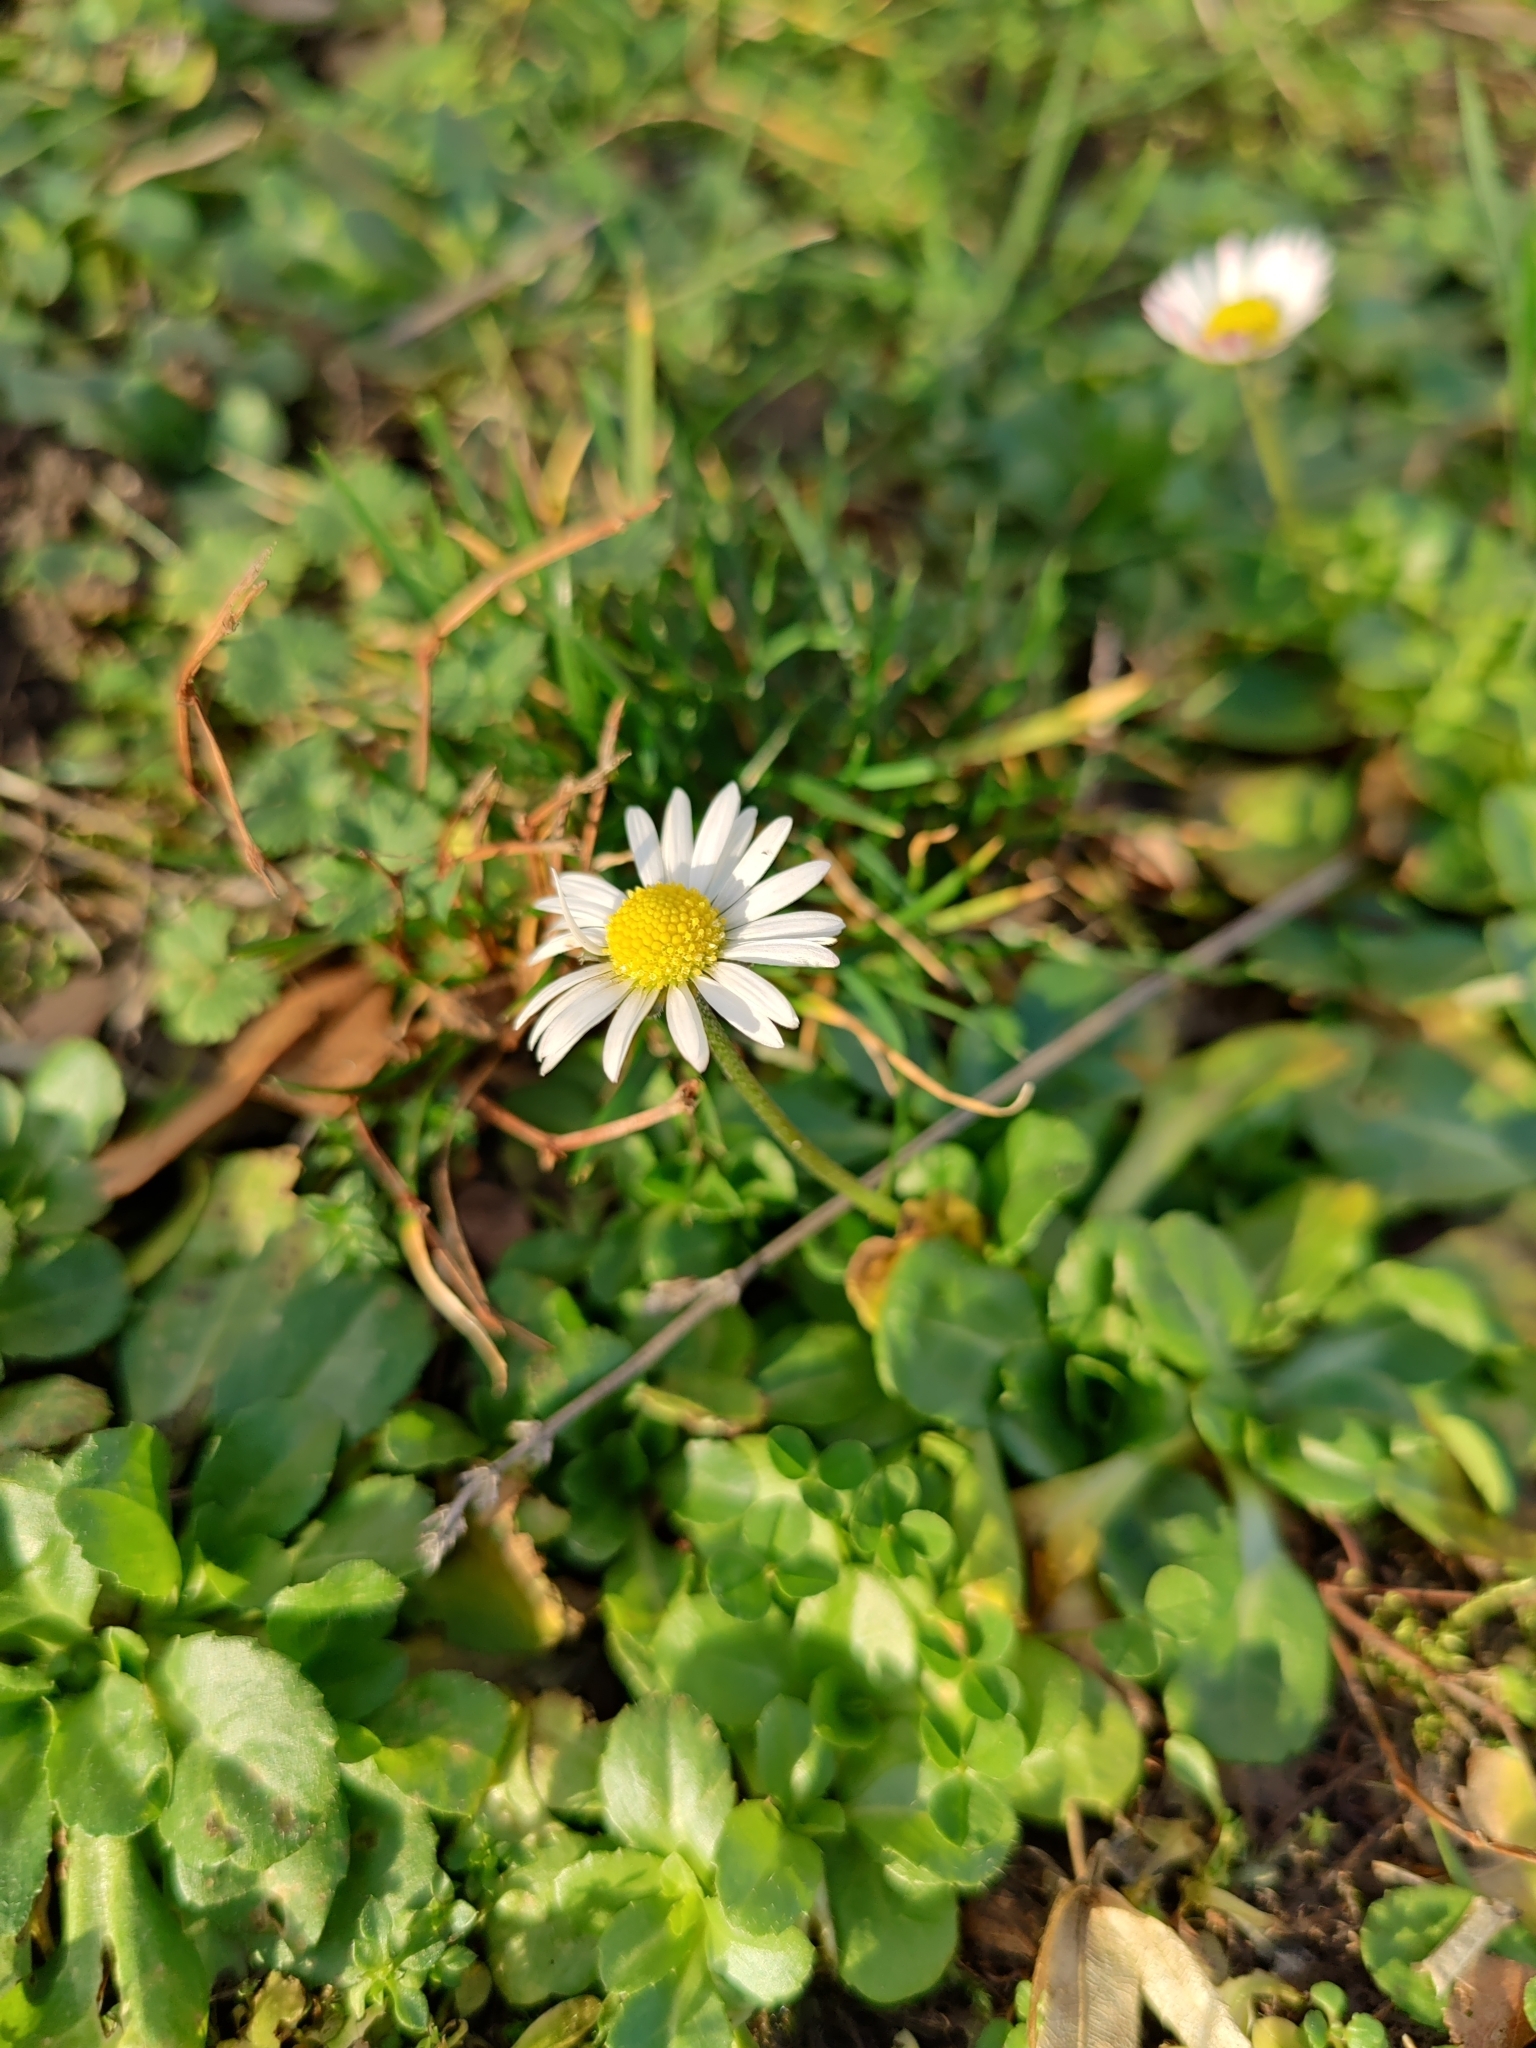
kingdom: Plantae
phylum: Tracheophyta
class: Magnoliopsida
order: Asterales
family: Asteraceae
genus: Bellis
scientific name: Bellis perennis
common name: Lawndaisy
